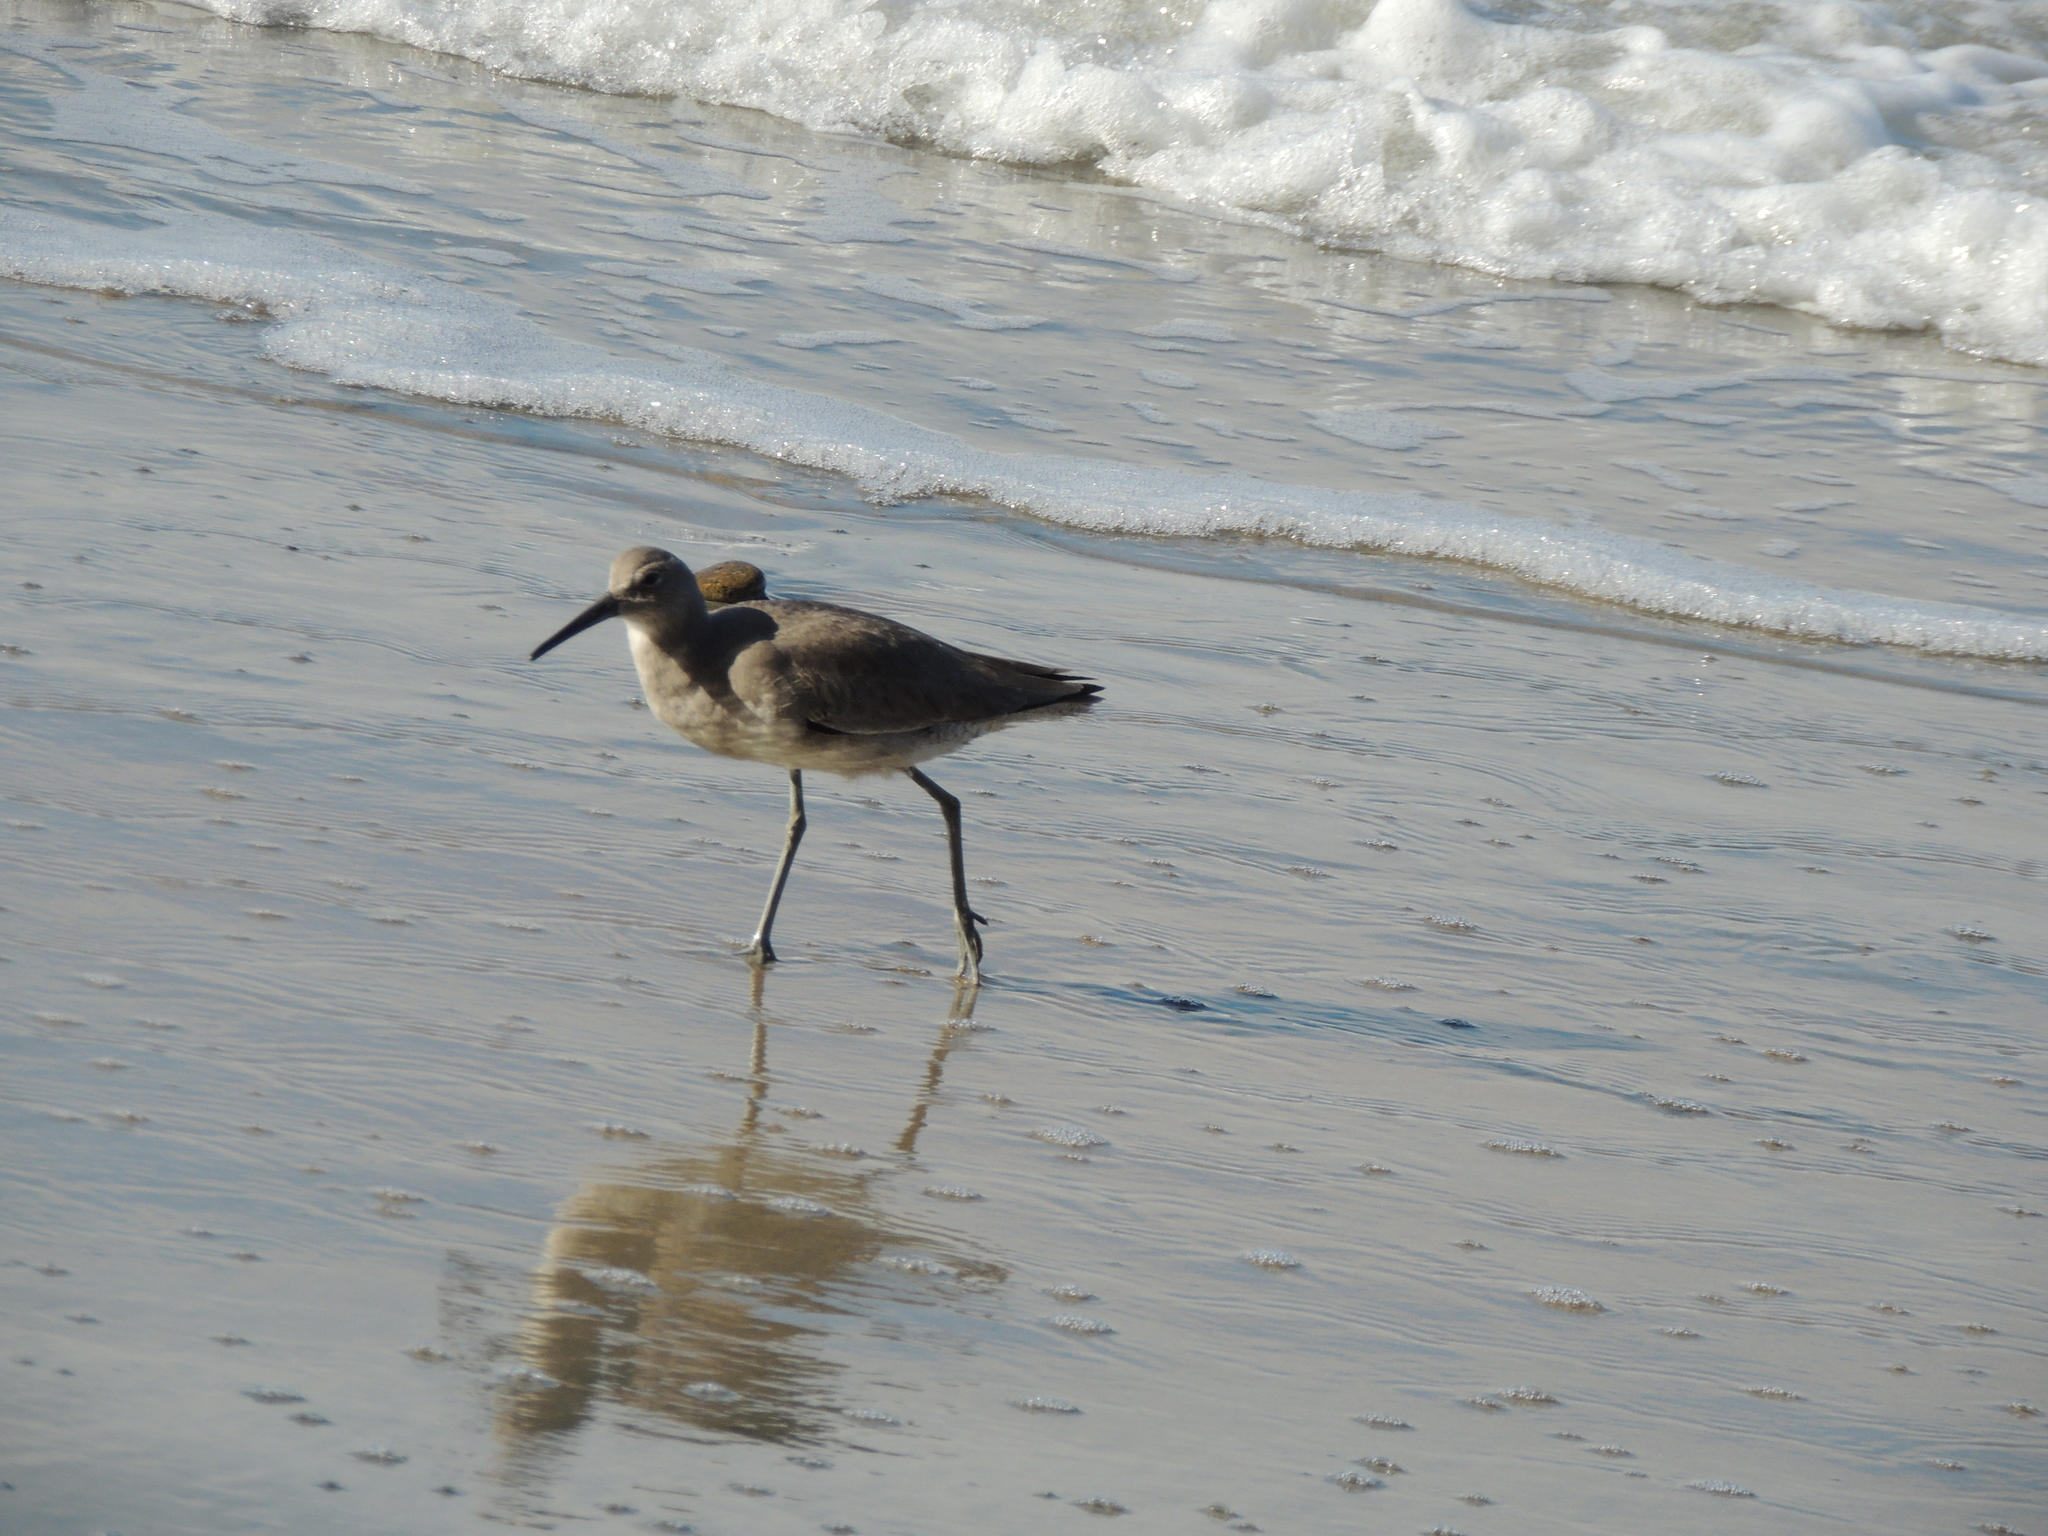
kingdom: Animalia
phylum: Chordata
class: Aves
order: Charadriiformes
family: Scolopacidae
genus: Tringa
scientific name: Tringa semipalmata
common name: Willet
